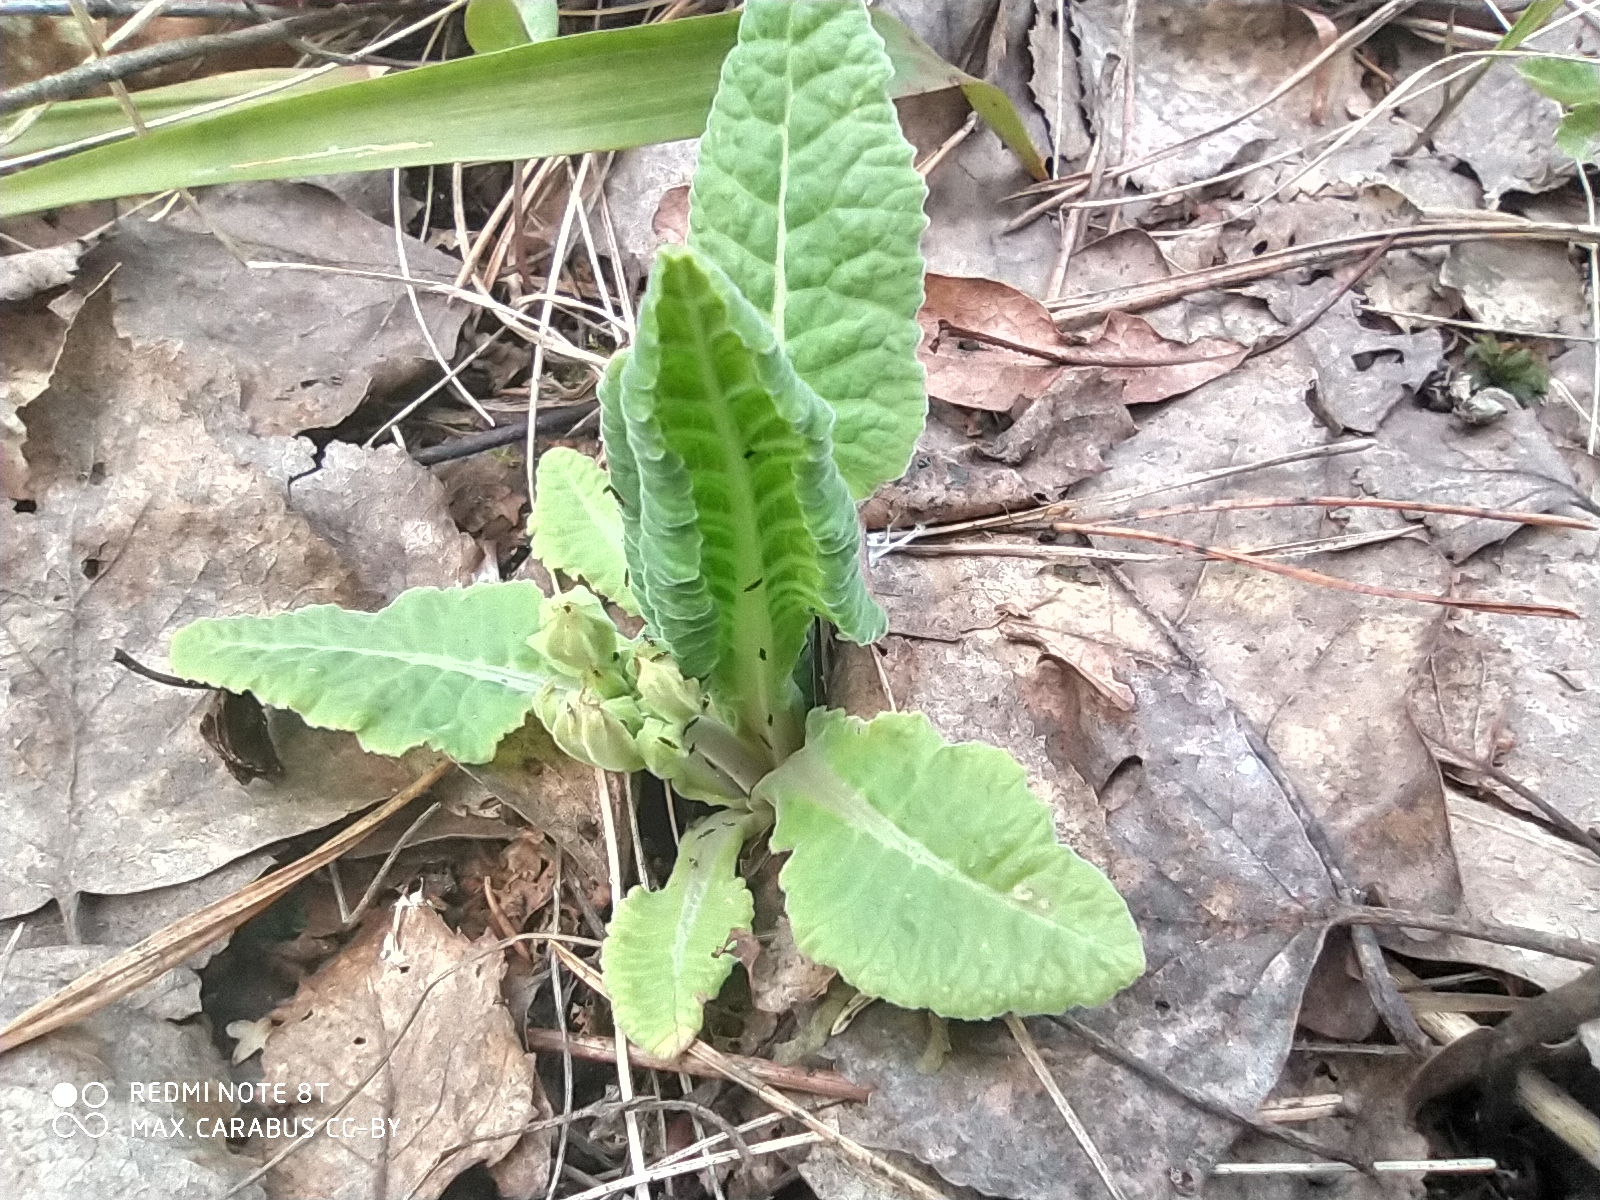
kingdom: Plantae
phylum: Tracheophyta
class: Magnoliopsida
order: Ericales
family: Primulaceae
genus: Primula
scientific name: Primula veris
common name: Cowslip
